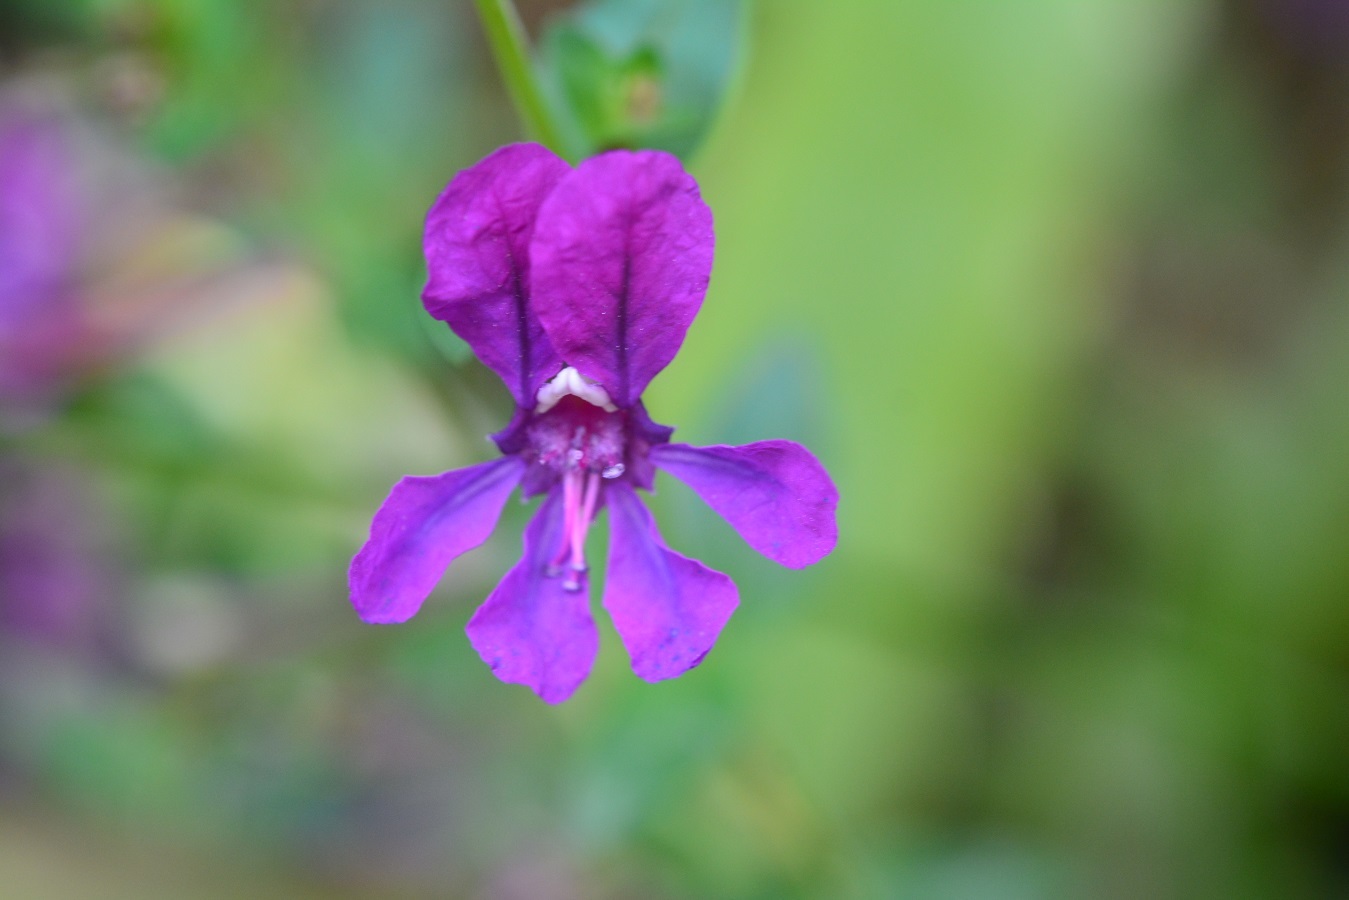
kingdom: Plantae
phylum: Tracheophyta
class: Magnoliopsida
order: Myrtales
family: Lythraceae
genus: Cuphea
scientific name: Cuphea aequipetala
